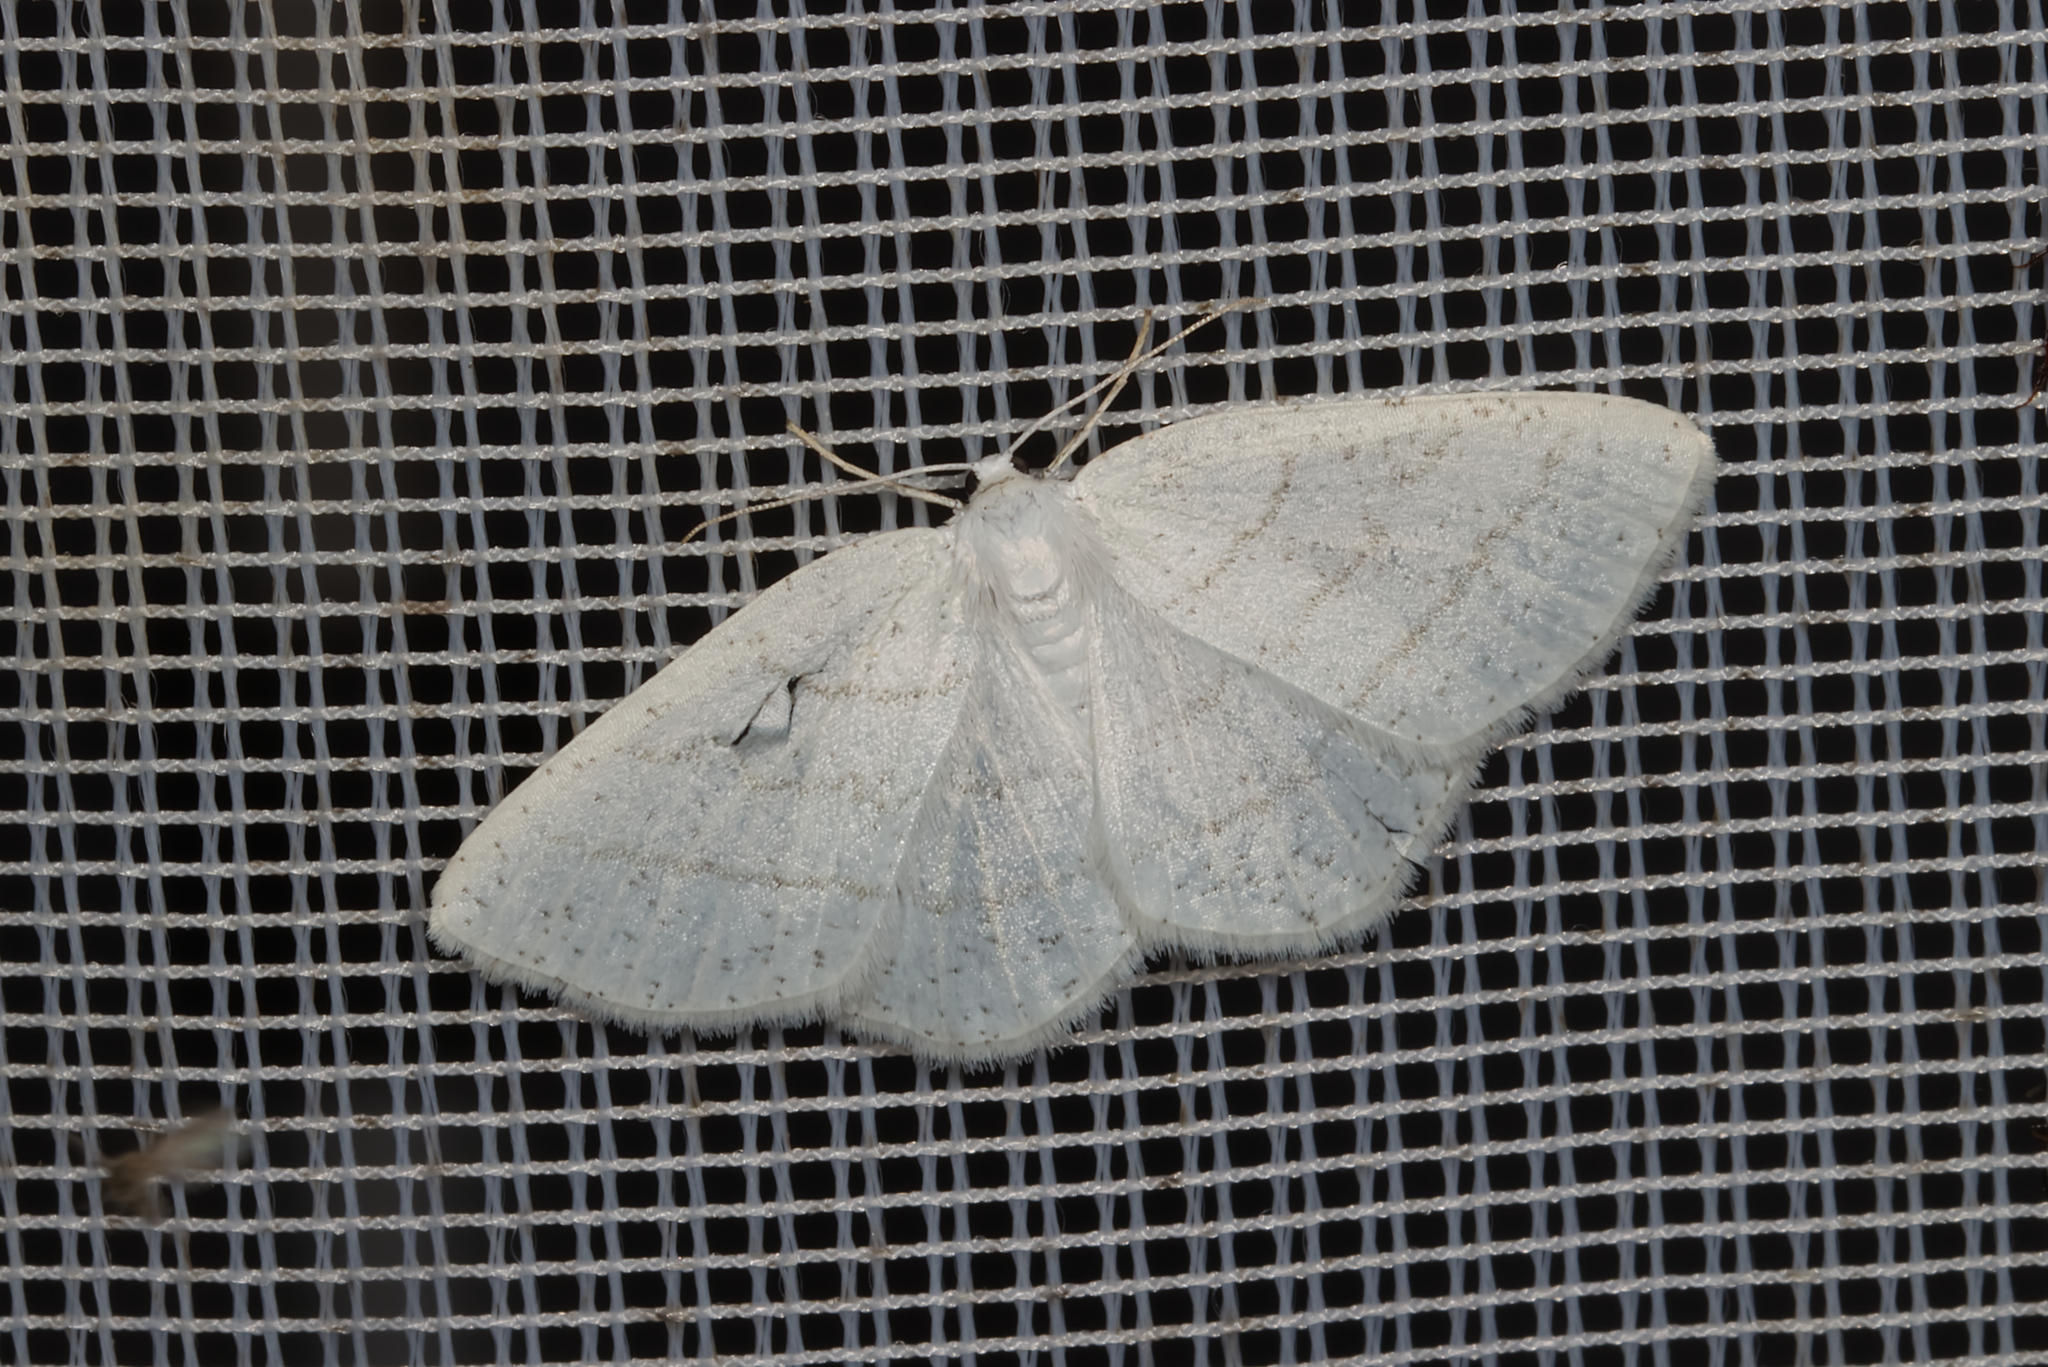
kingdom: Animalia
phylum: Arthropoda
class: Insecta
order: Lepidoptera
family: Geometridae
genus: Cabera
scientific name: Cabera pusaria
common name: Common white wave
